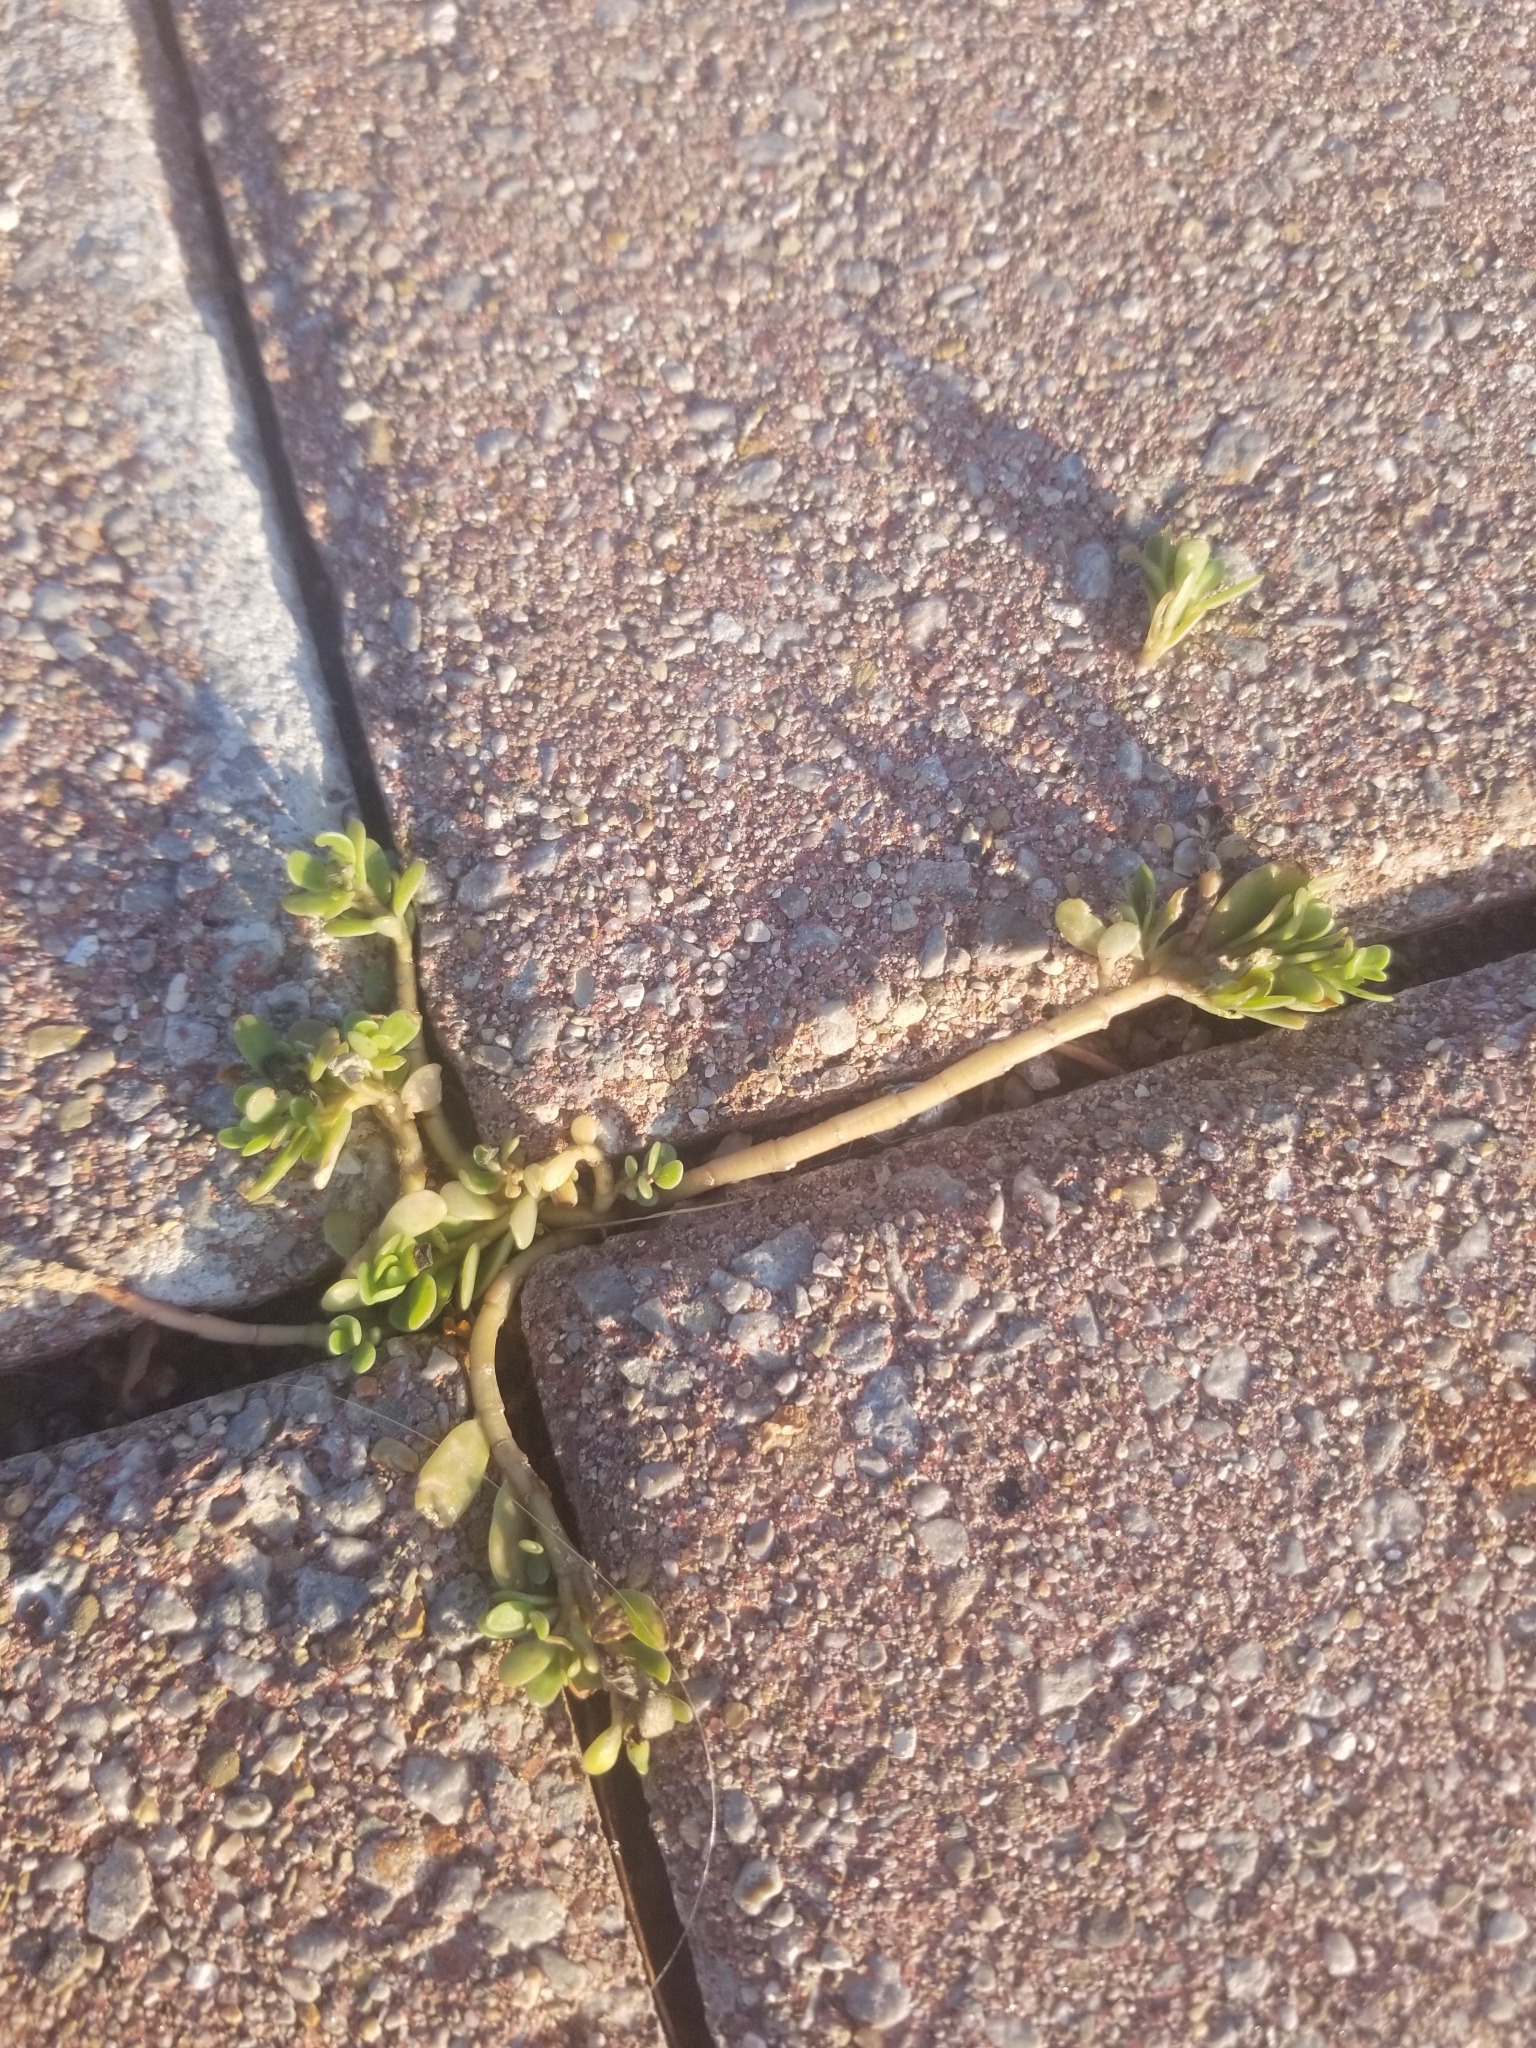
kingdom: Plantae
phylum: Tracheophyta
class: Magnoliopsida
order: Caryophyllales
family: Portulacaceae
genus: Portulaca
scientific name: Portulaca oleracea
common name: Common purslane
